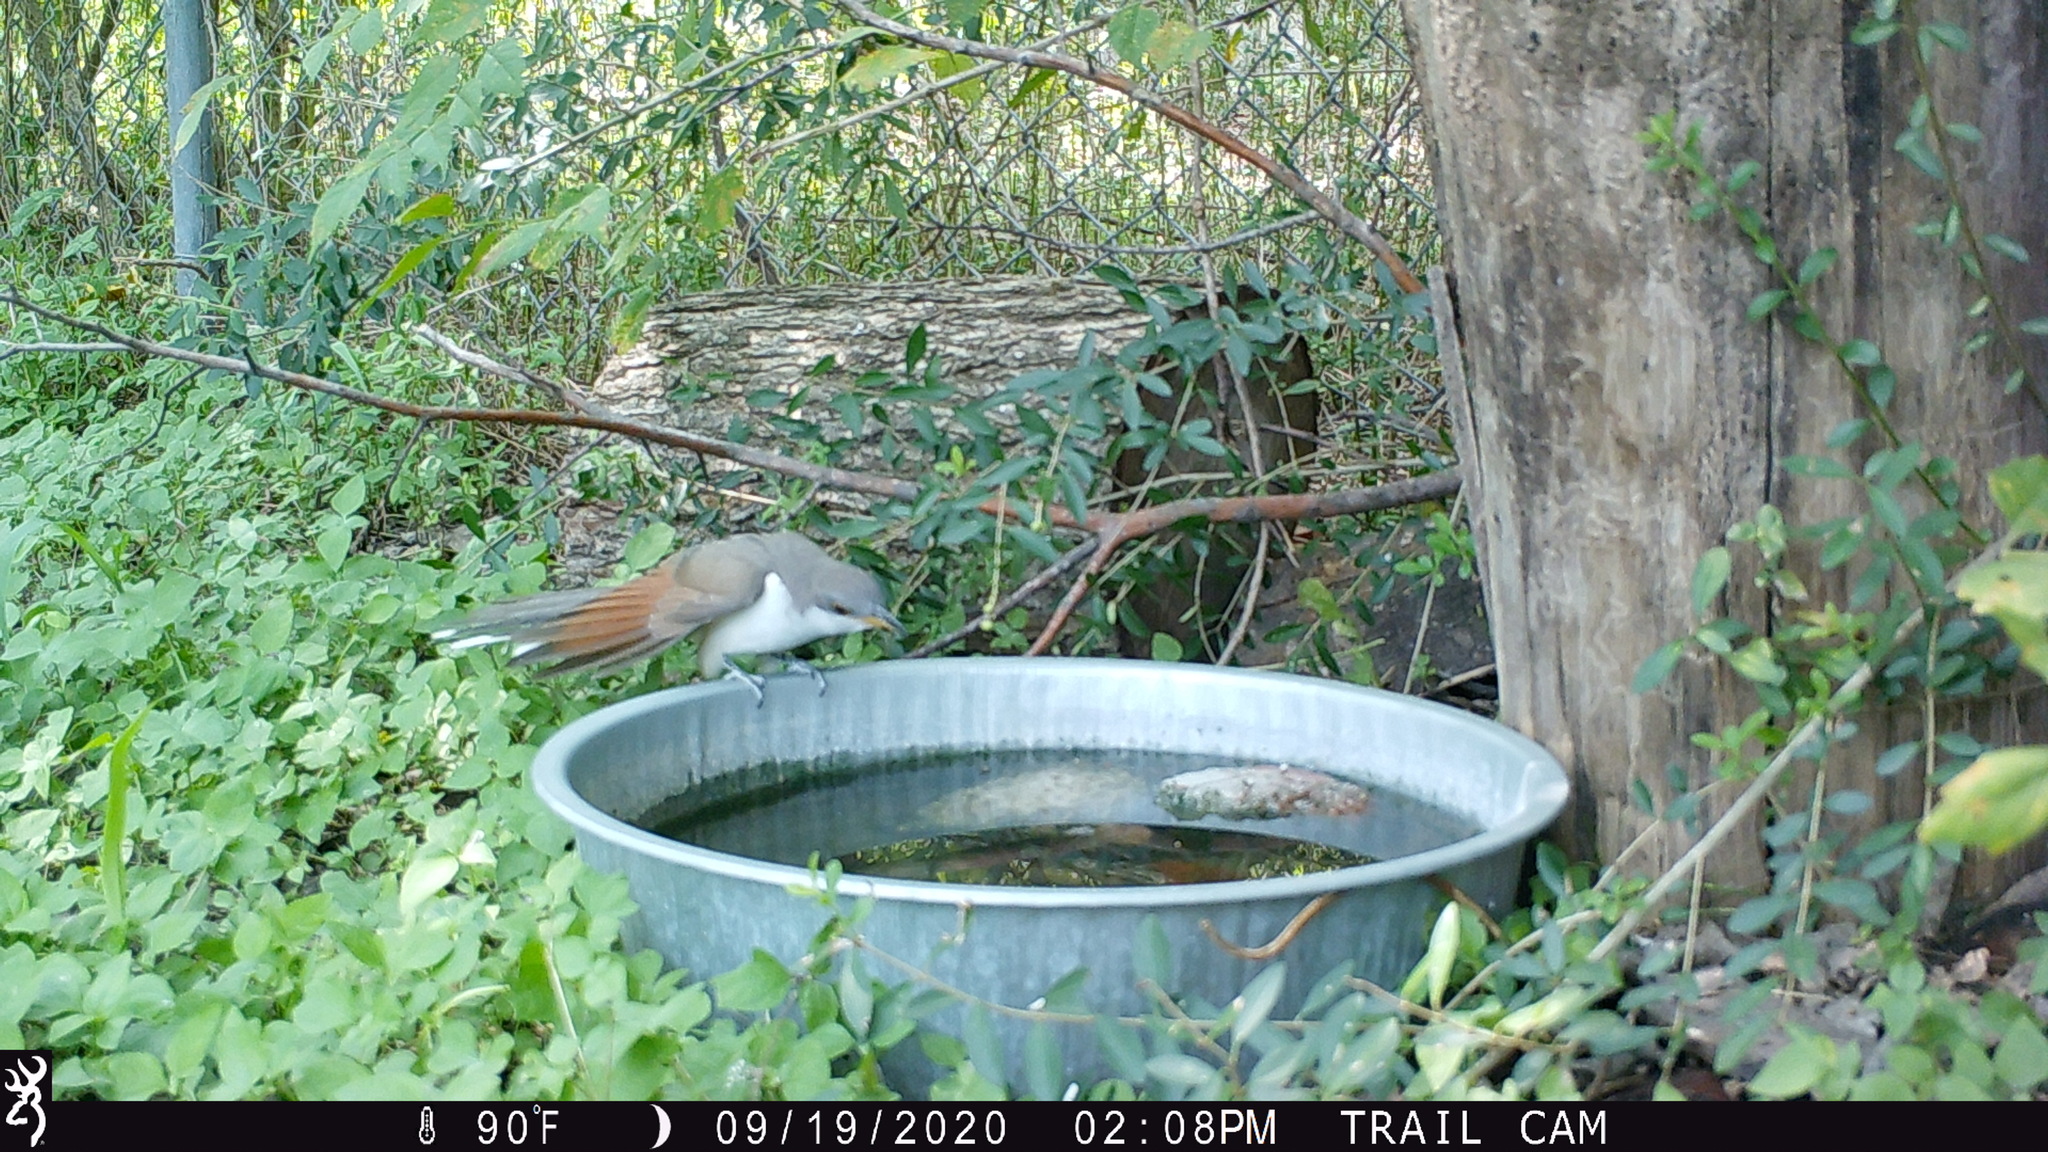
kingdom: Animalia
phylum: Chordata
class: Aves
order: Cuculiformes
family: Cuculidae
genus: Coccyzus
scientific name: Coccyzus americanus
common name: Yellow-billed cuckoo
